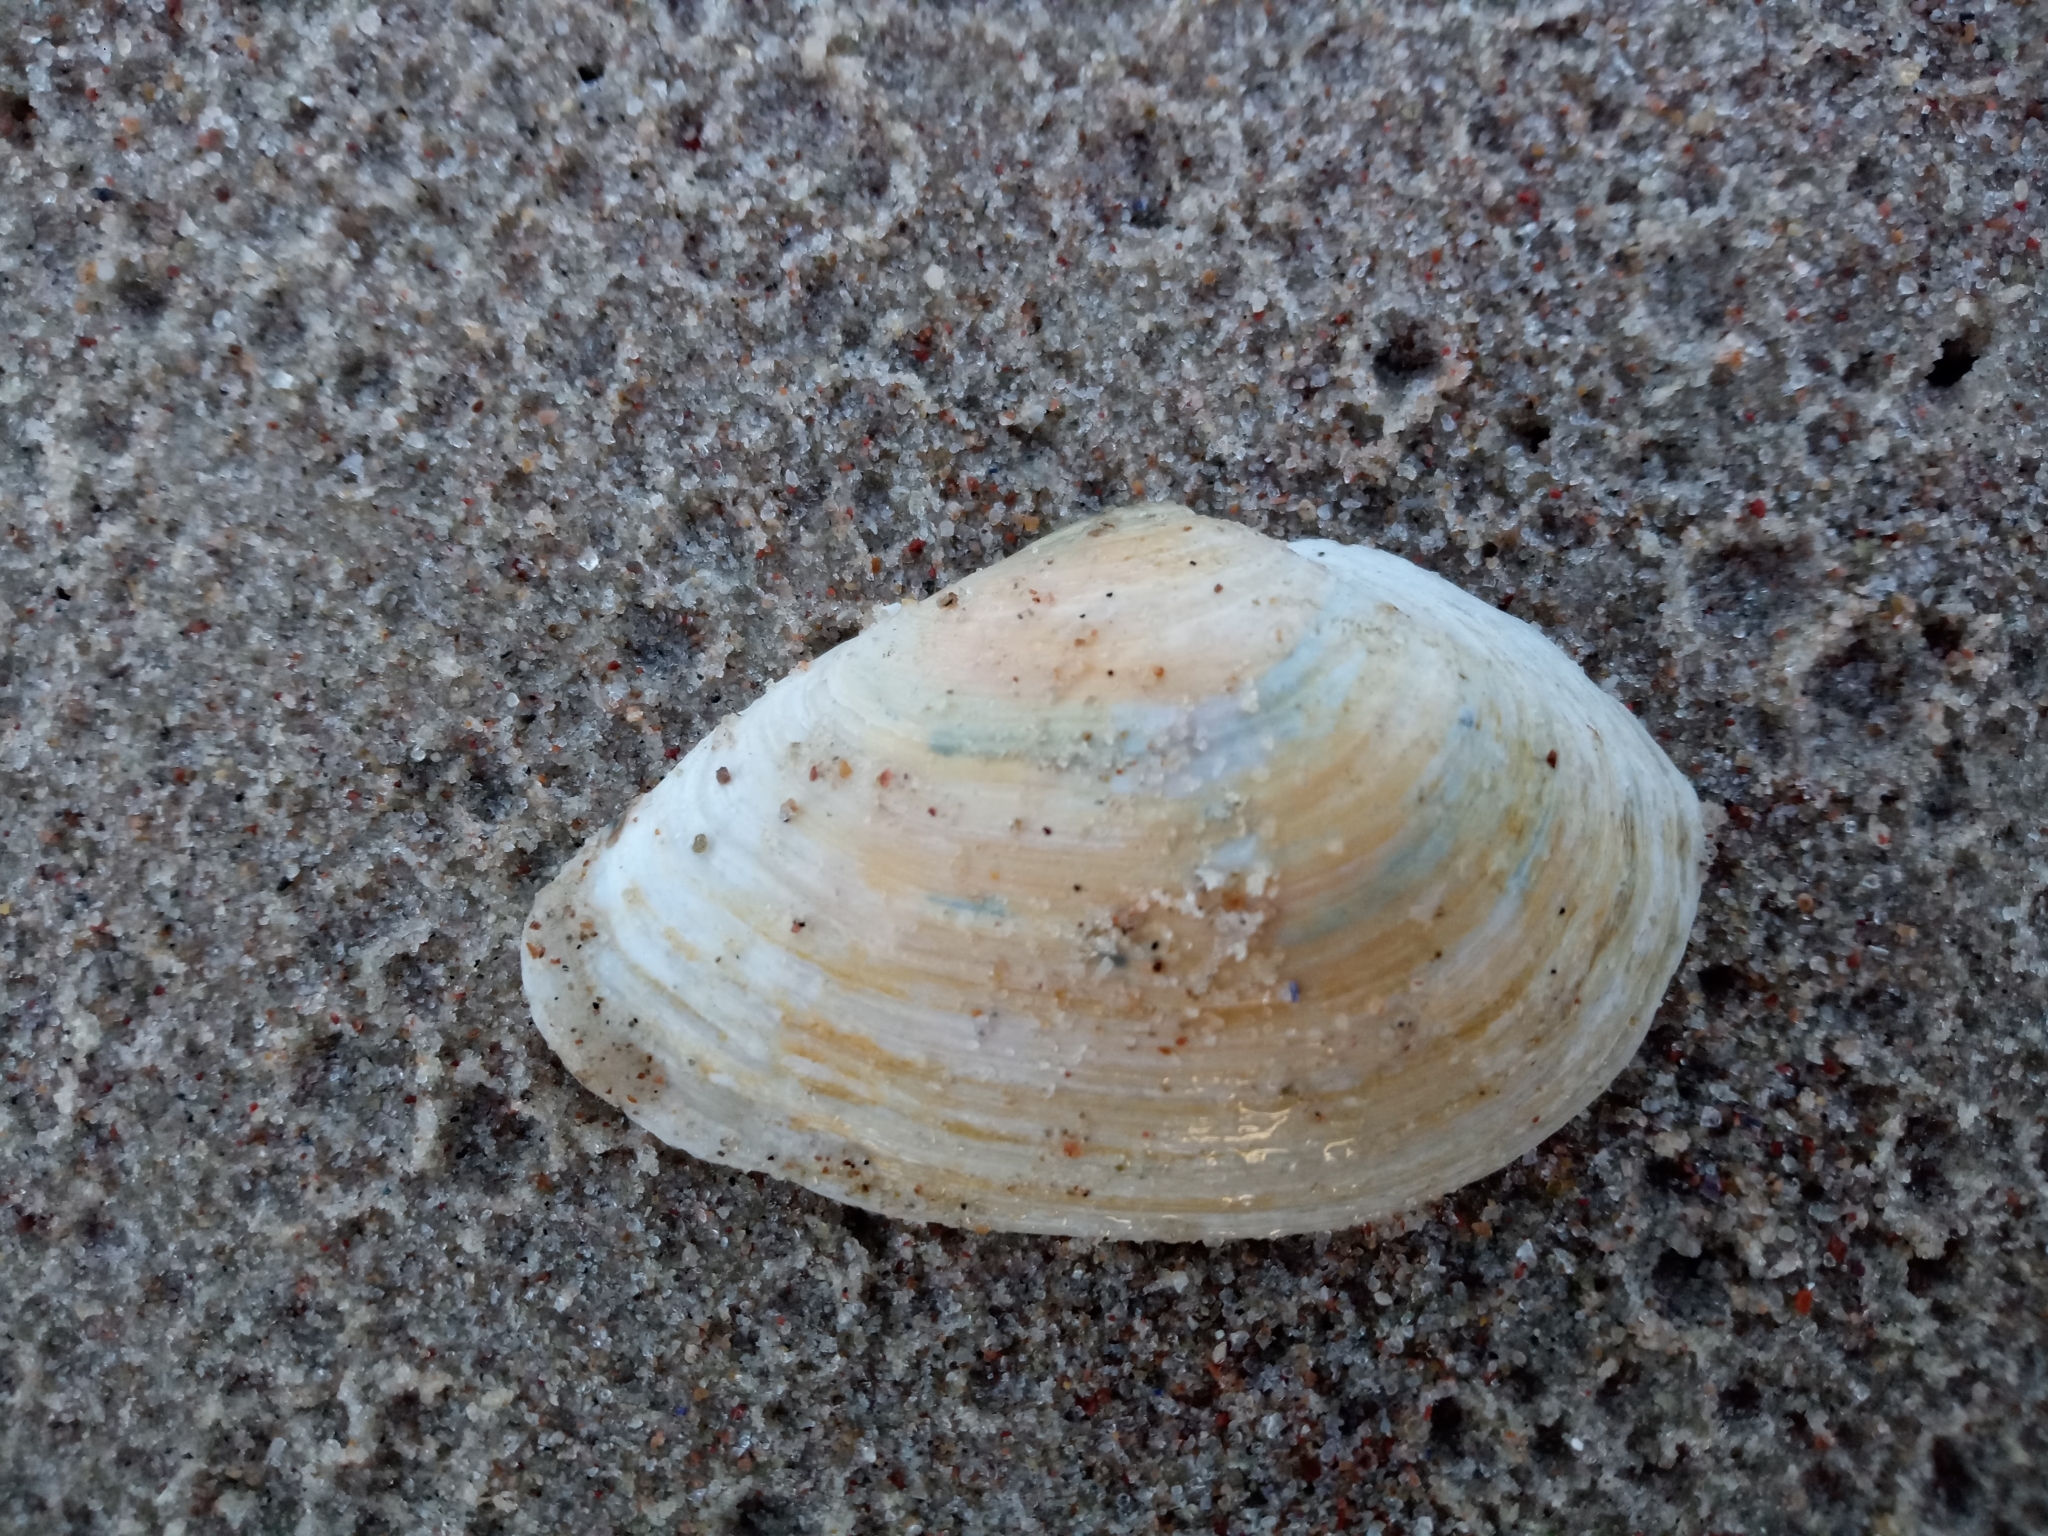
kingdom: Animalia
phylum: Mollusca
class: Bivalvia
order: Myida
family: Myidae
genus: Mya
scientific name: Mya arenaria
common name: Soft-shelled clam
